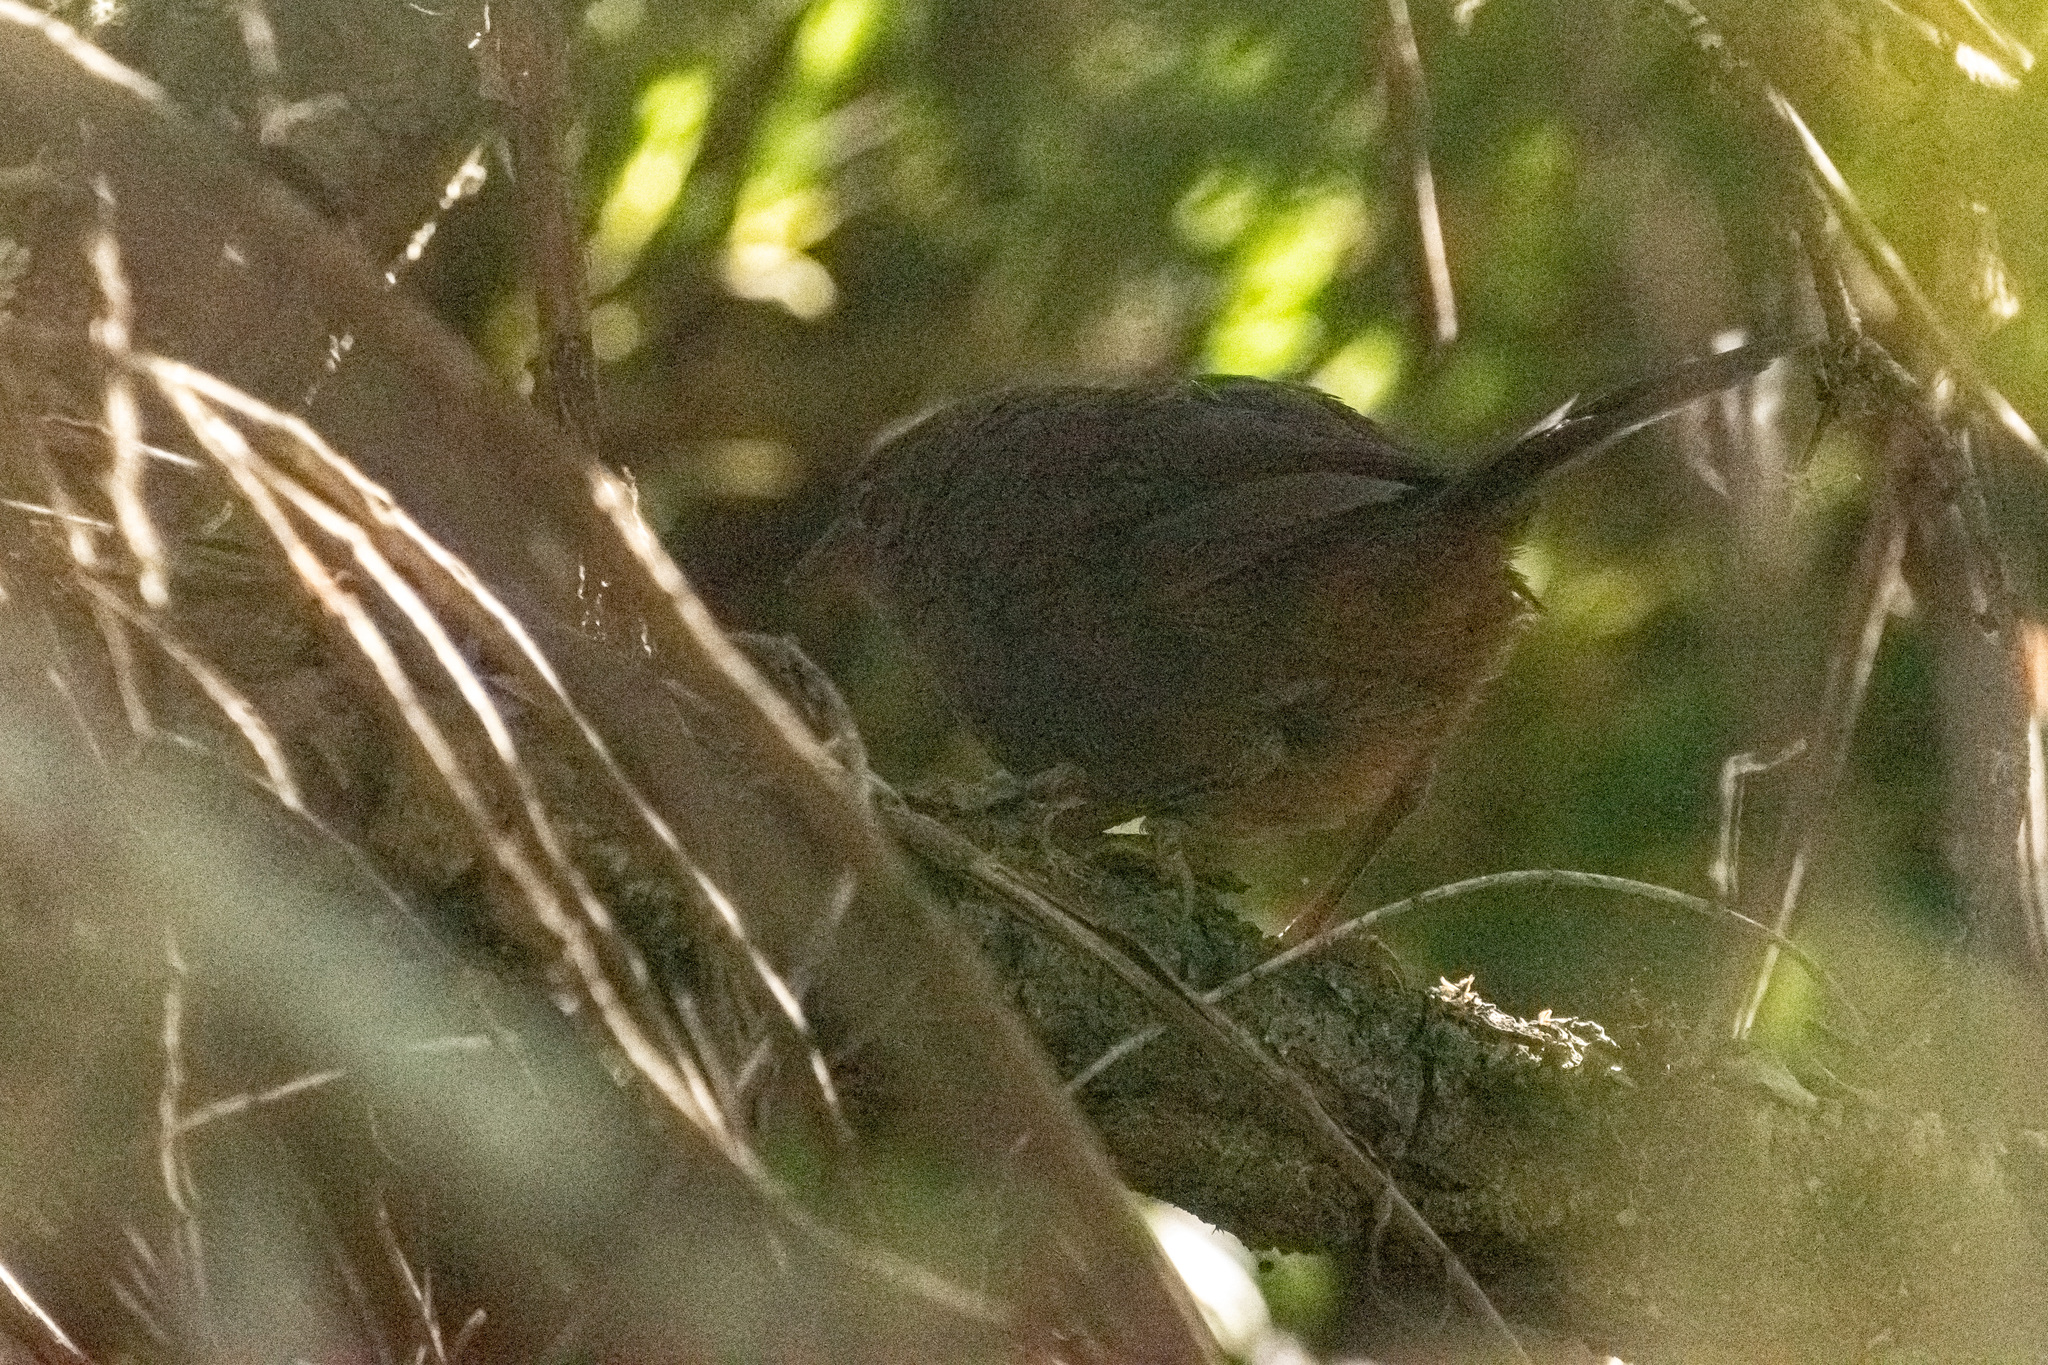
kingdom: Animalia
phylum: Chordata
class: Aves
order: Passeriformes
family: Rhinocryptidae
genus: Eugralla
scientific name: Eugralla paradoxa
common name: Ochre-flanked tapaculo
